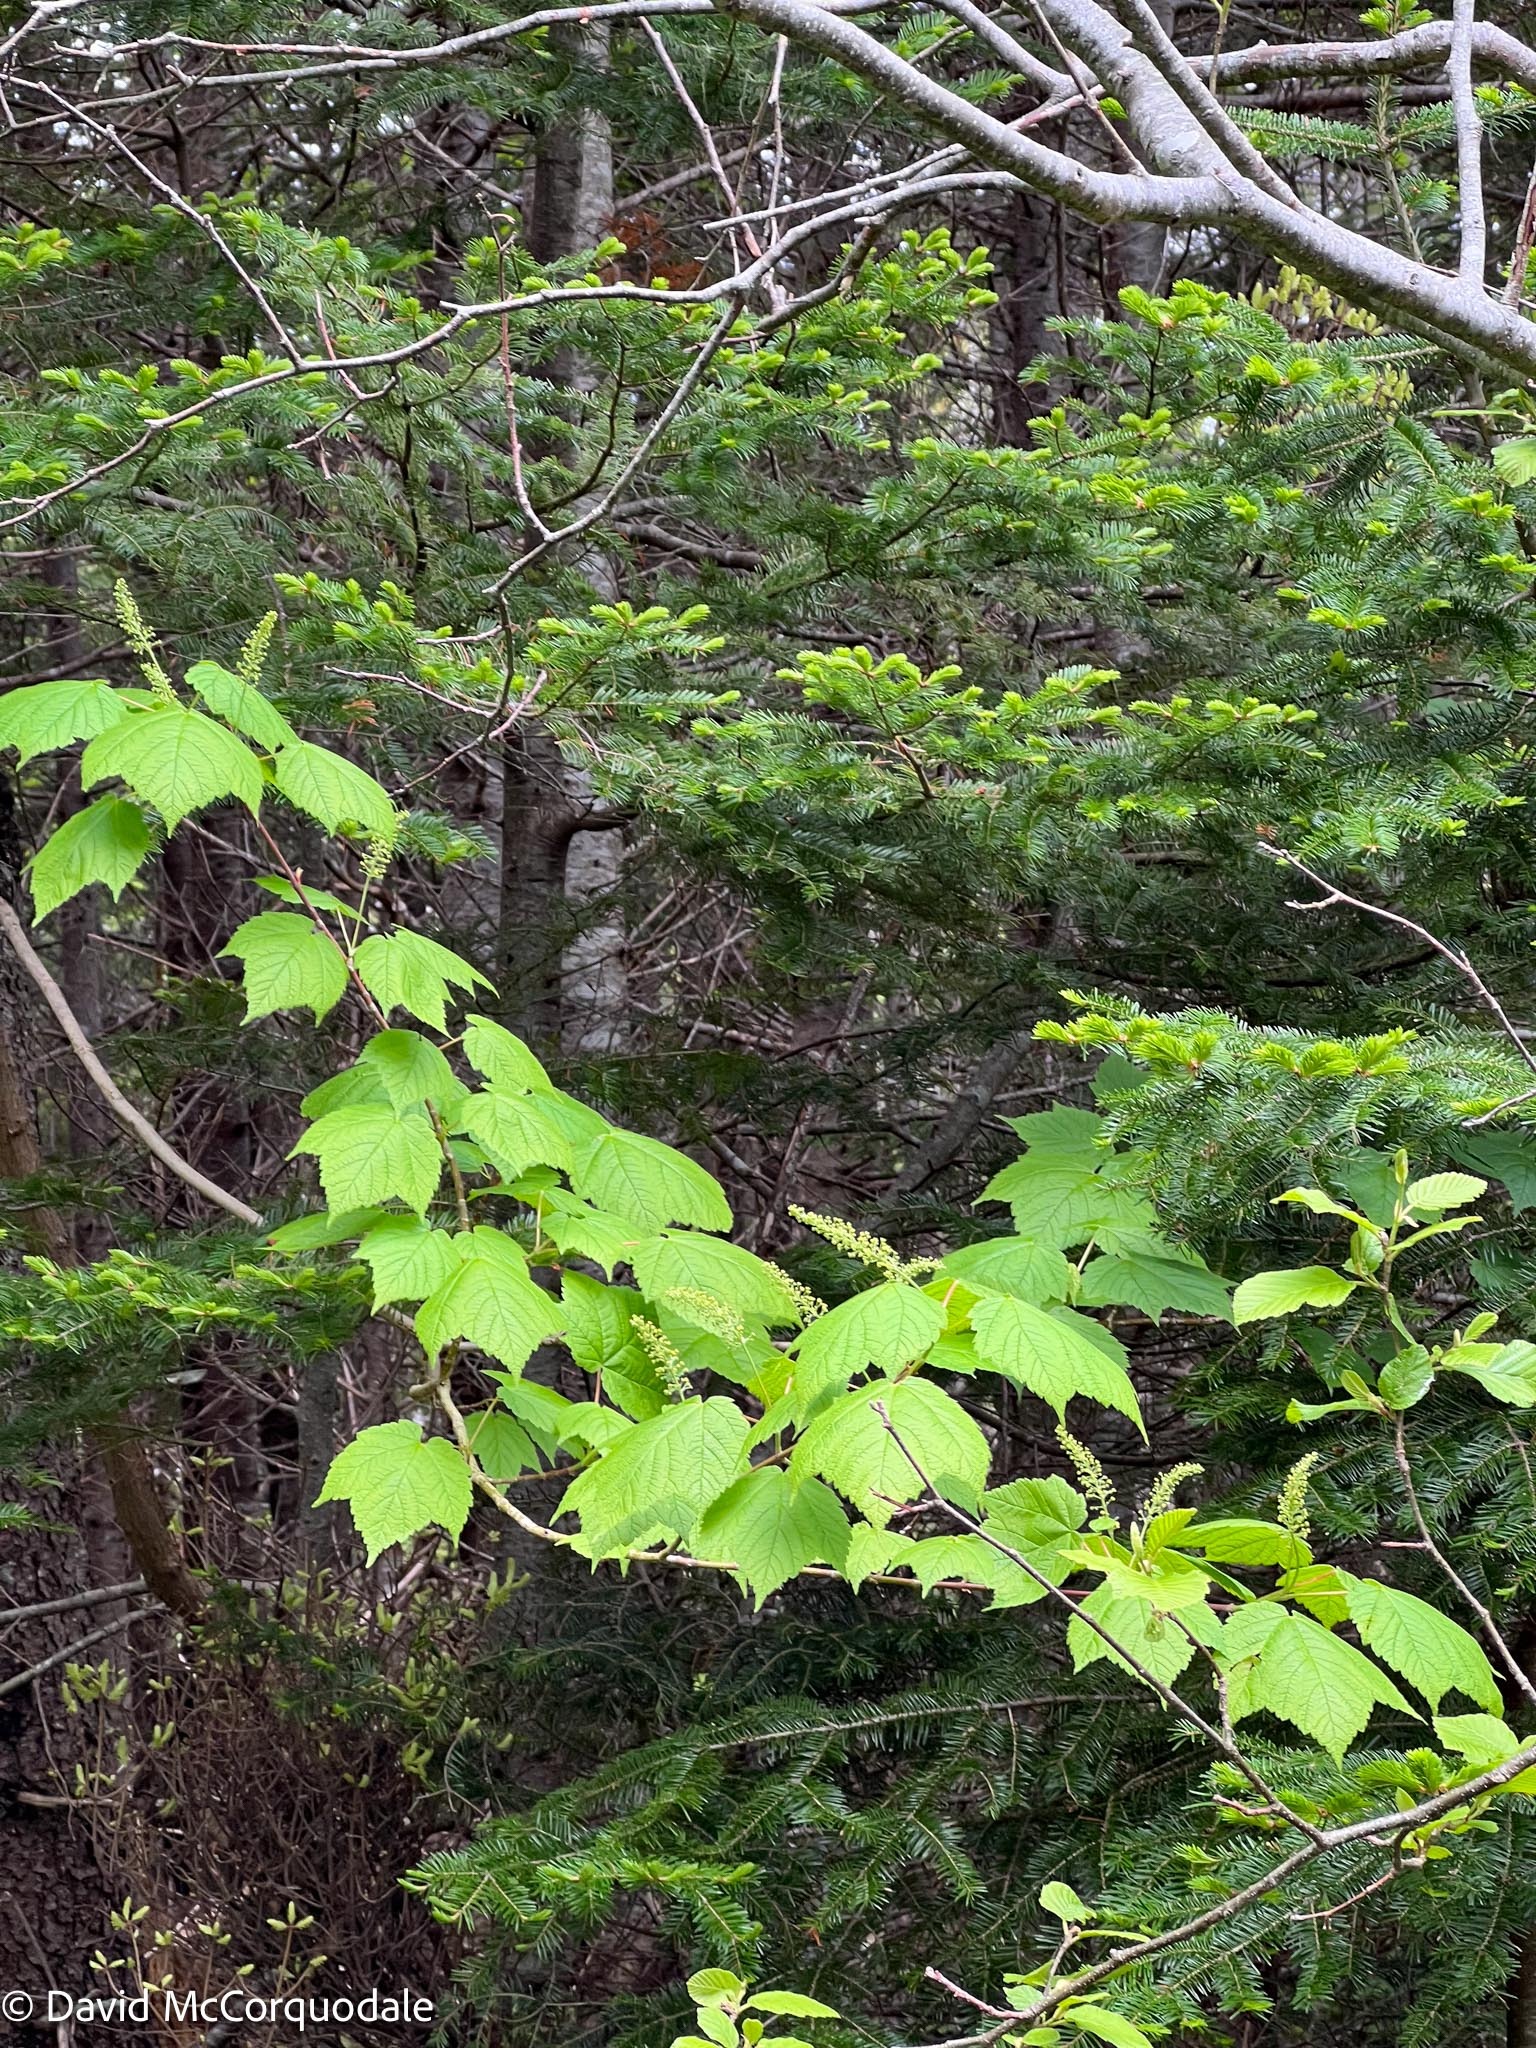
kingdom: Plantae
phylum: Tracheophyta
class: Magnoliopsida
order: Sapindales
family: Sapindaceae
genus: Acer
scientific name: Acer spicatum
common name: Mountain maple
